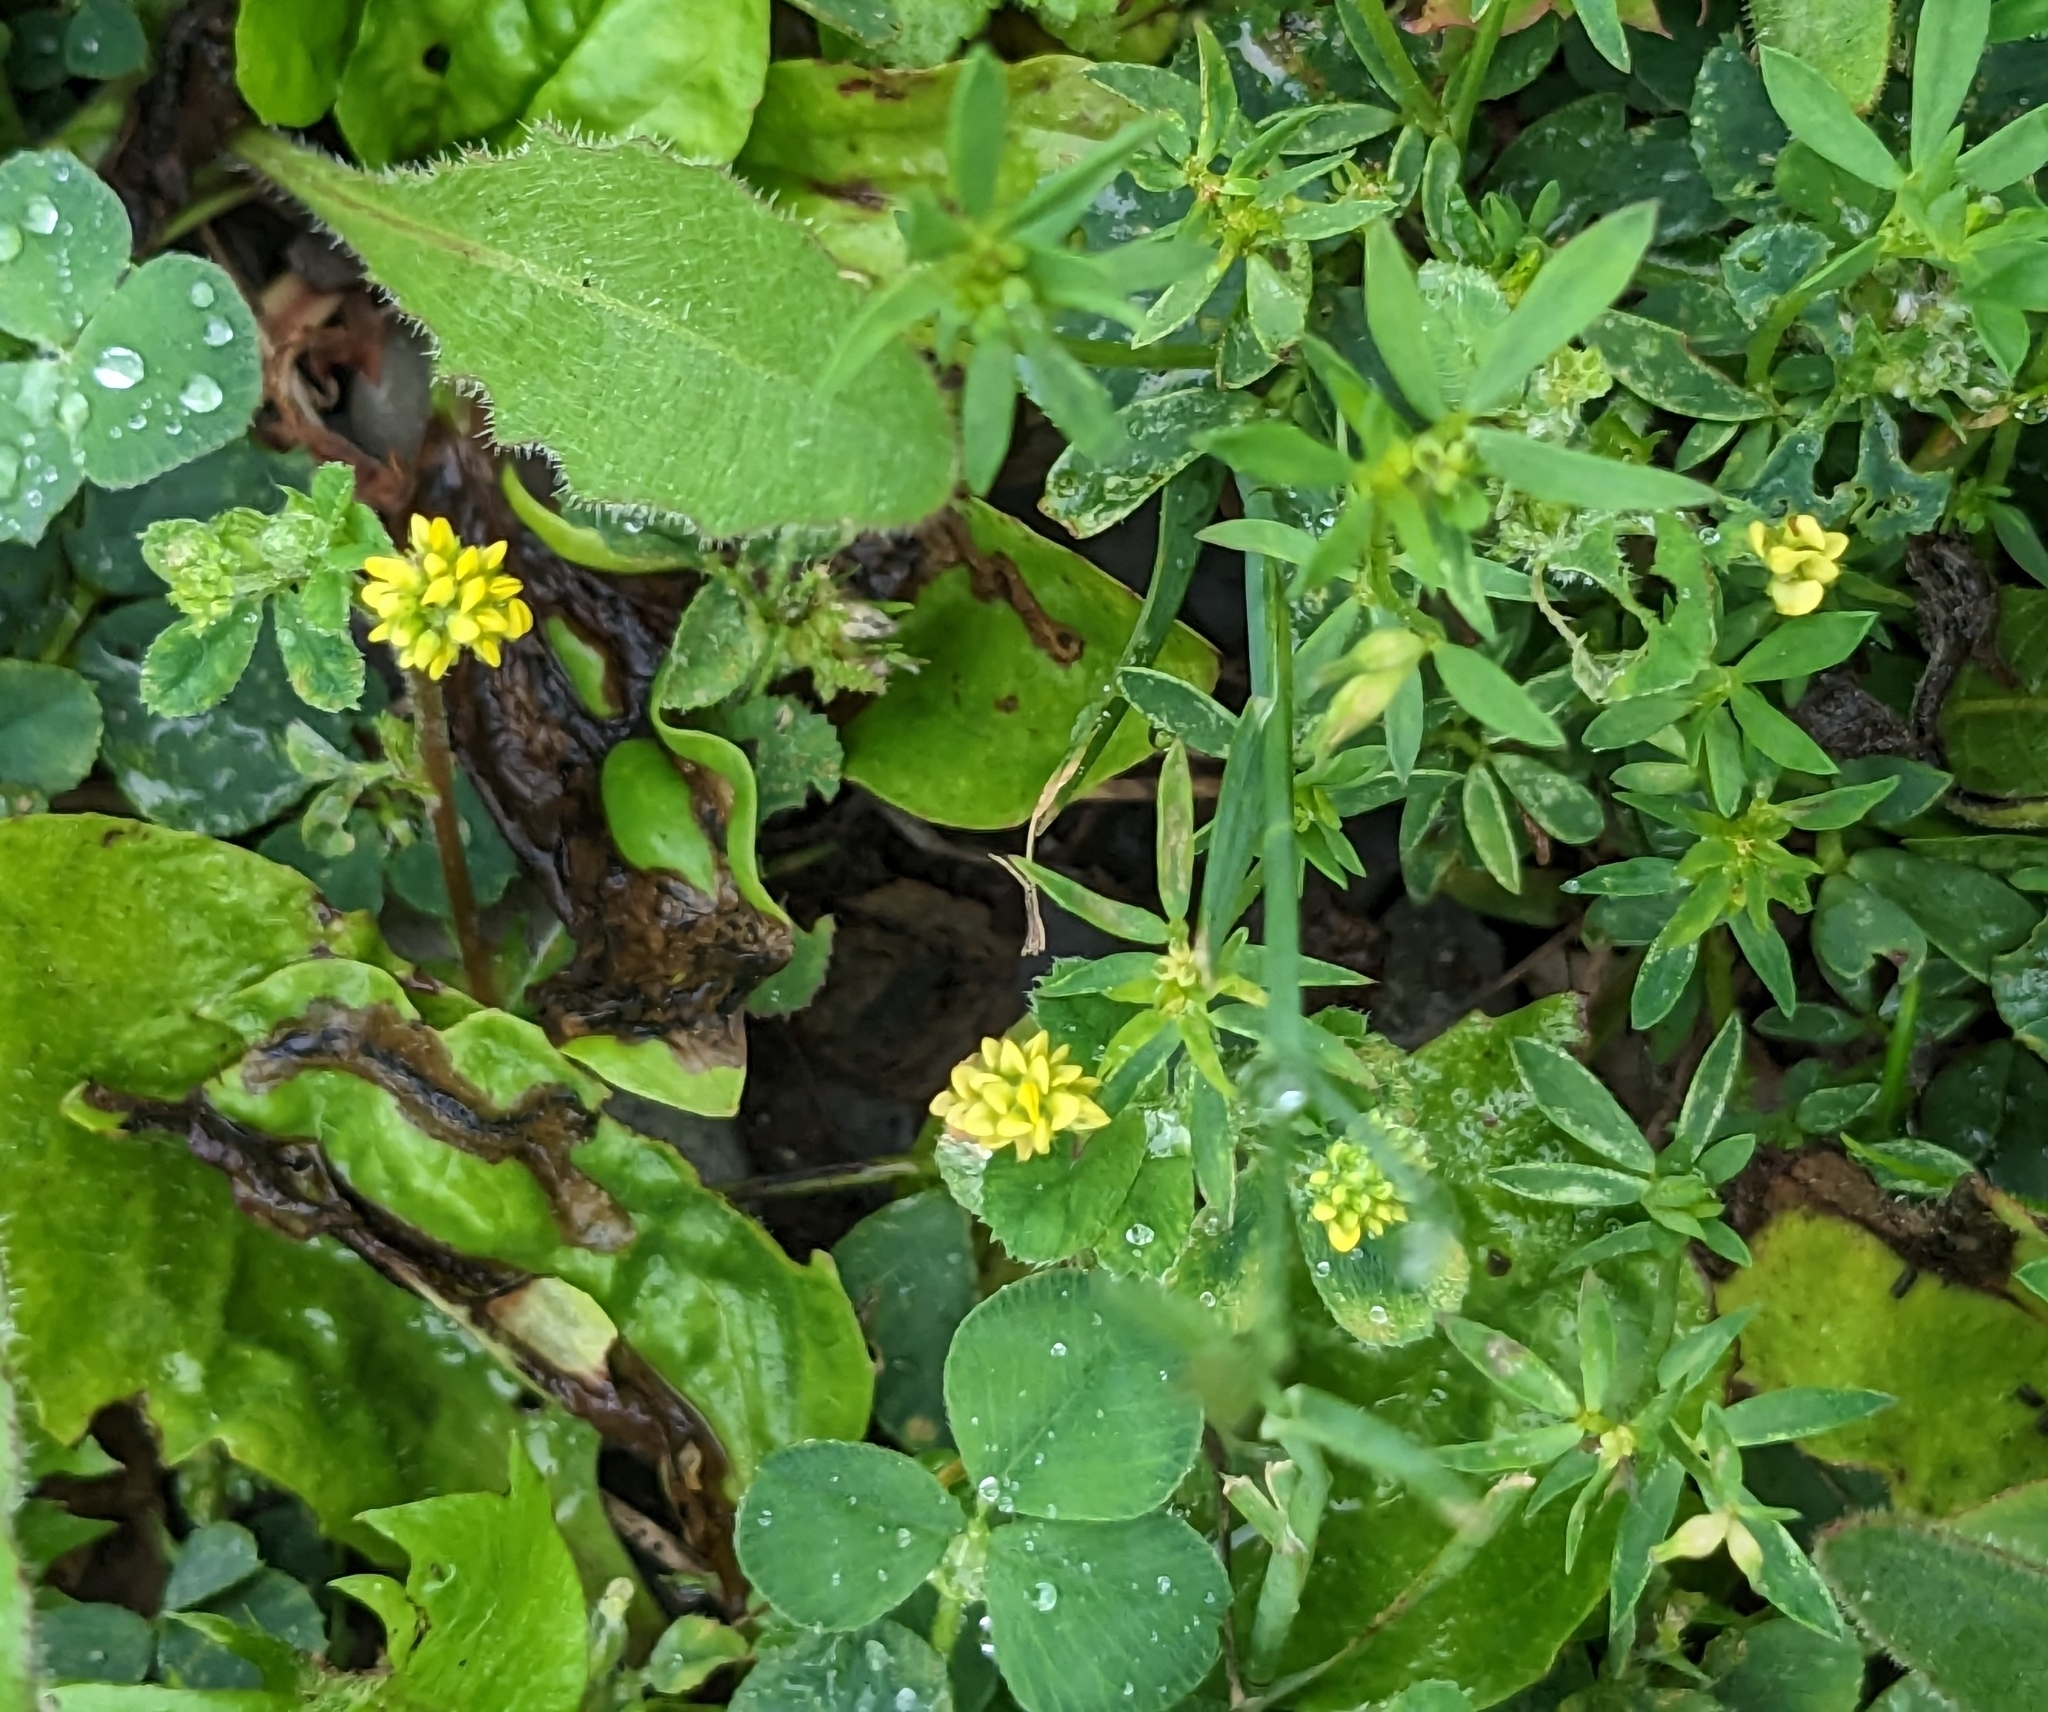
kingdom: Plantae
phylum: Tracheophyta
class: Magnoliopsida
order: Fabales
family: Fabaceae
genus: Medicago
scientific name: Medicago lupulina
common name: Black medick
